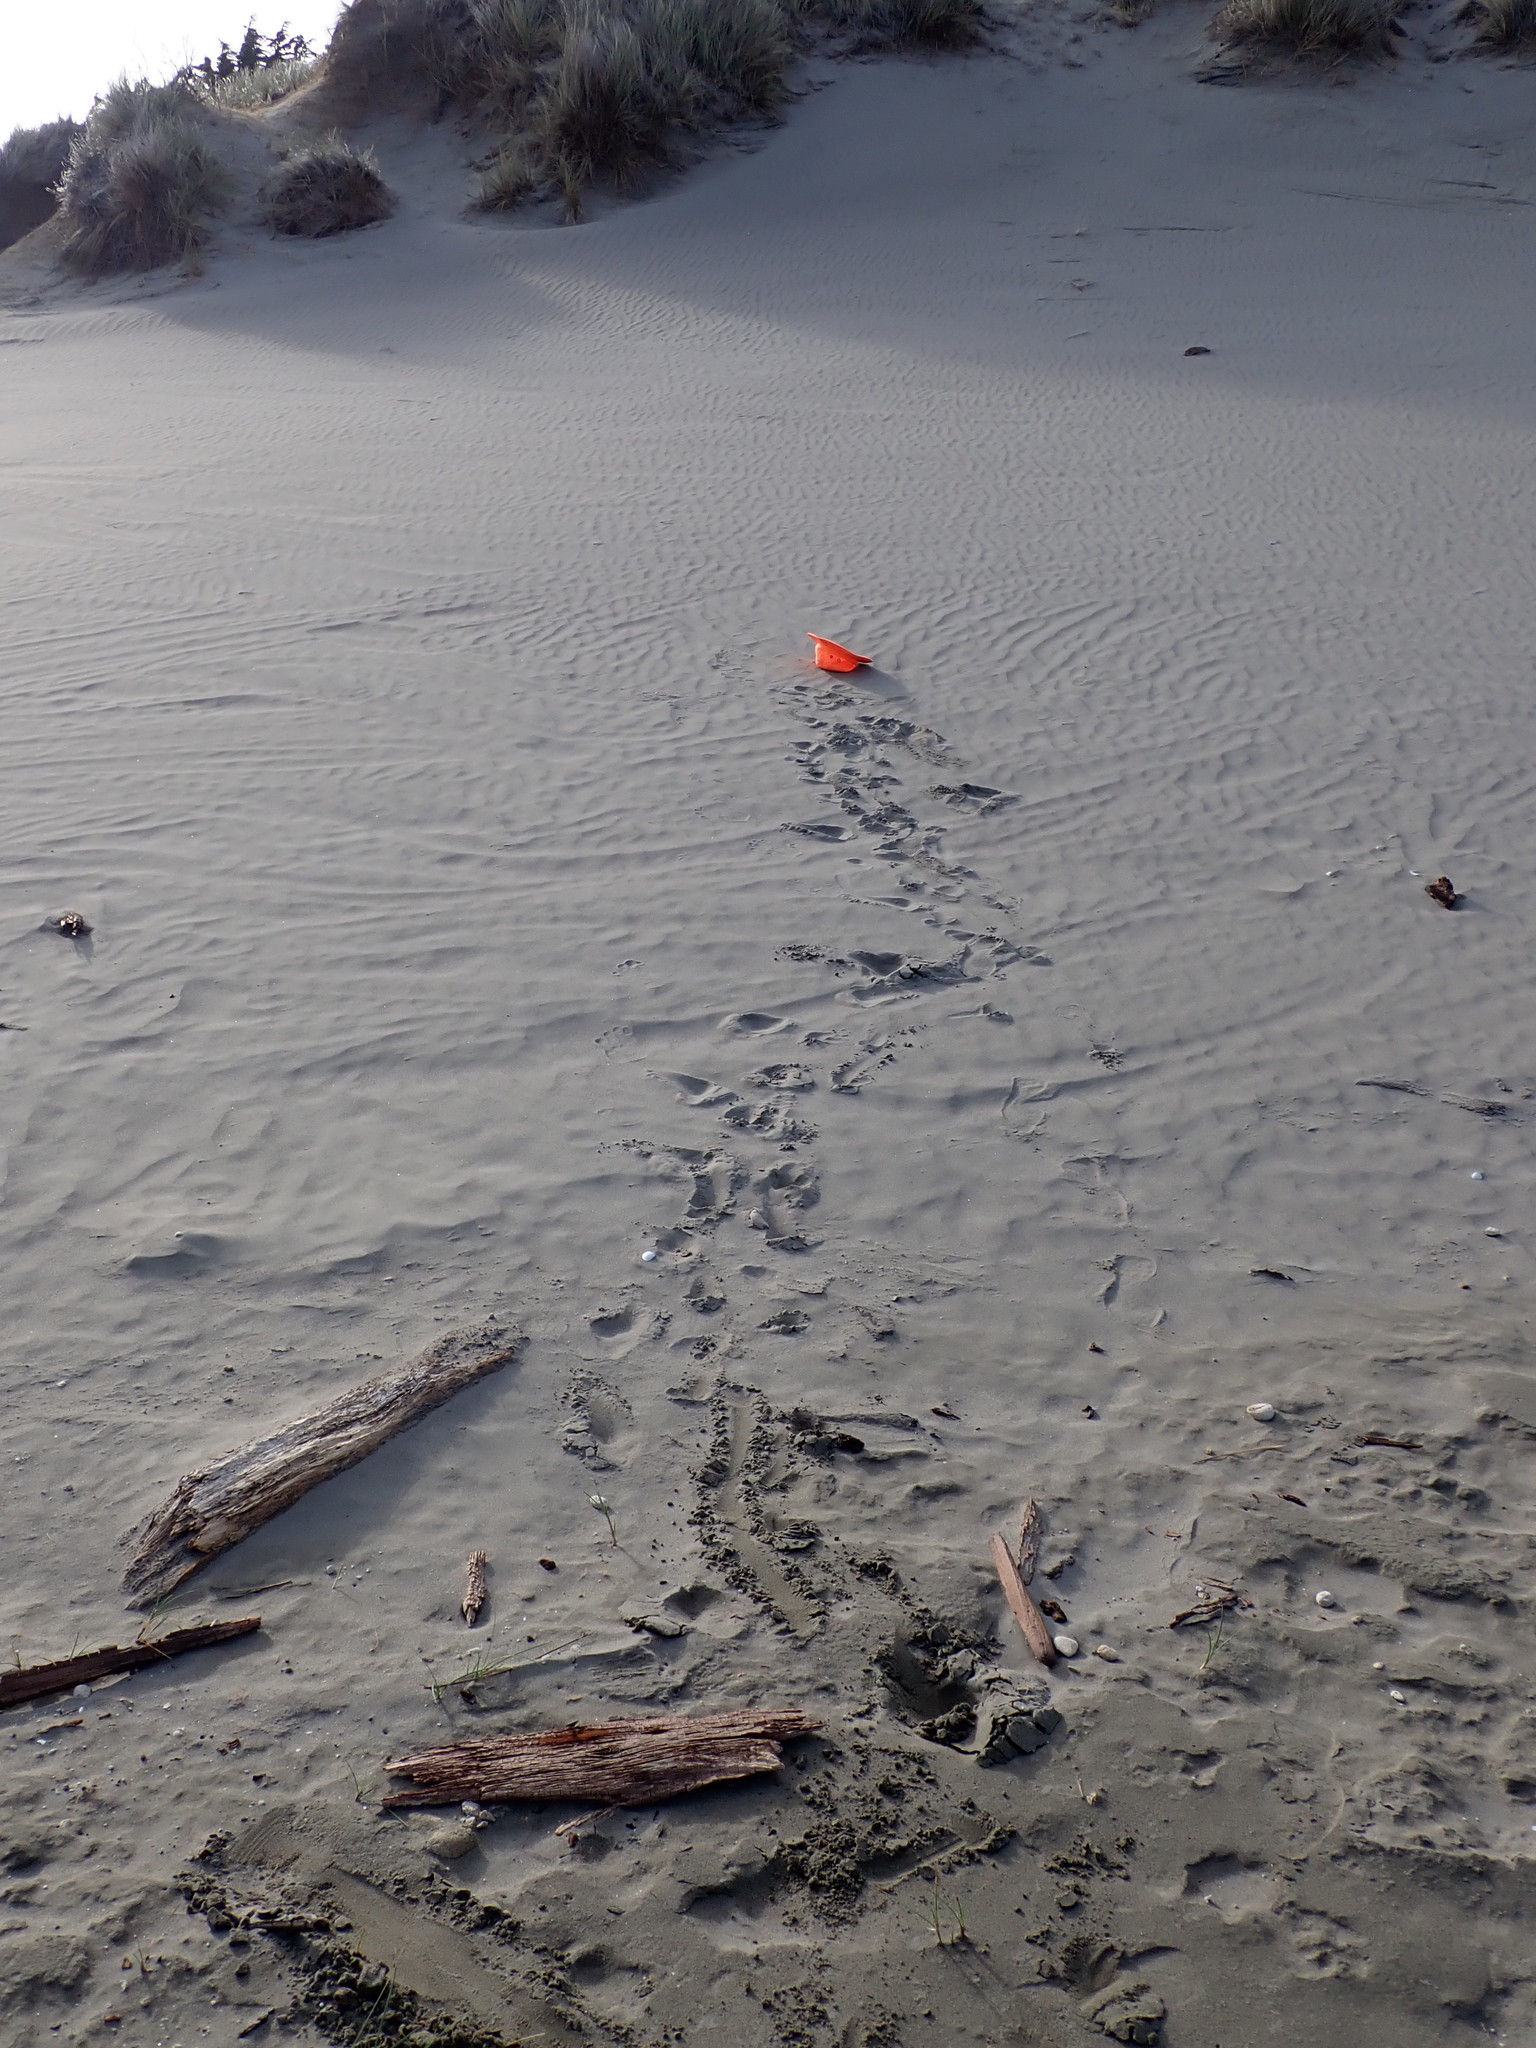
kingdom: Animalia
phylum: Arthropoda
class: Arachnida
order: Araneae
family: Lycosidae
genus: Anoteropsis
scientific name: Anoteropsis litoralis
